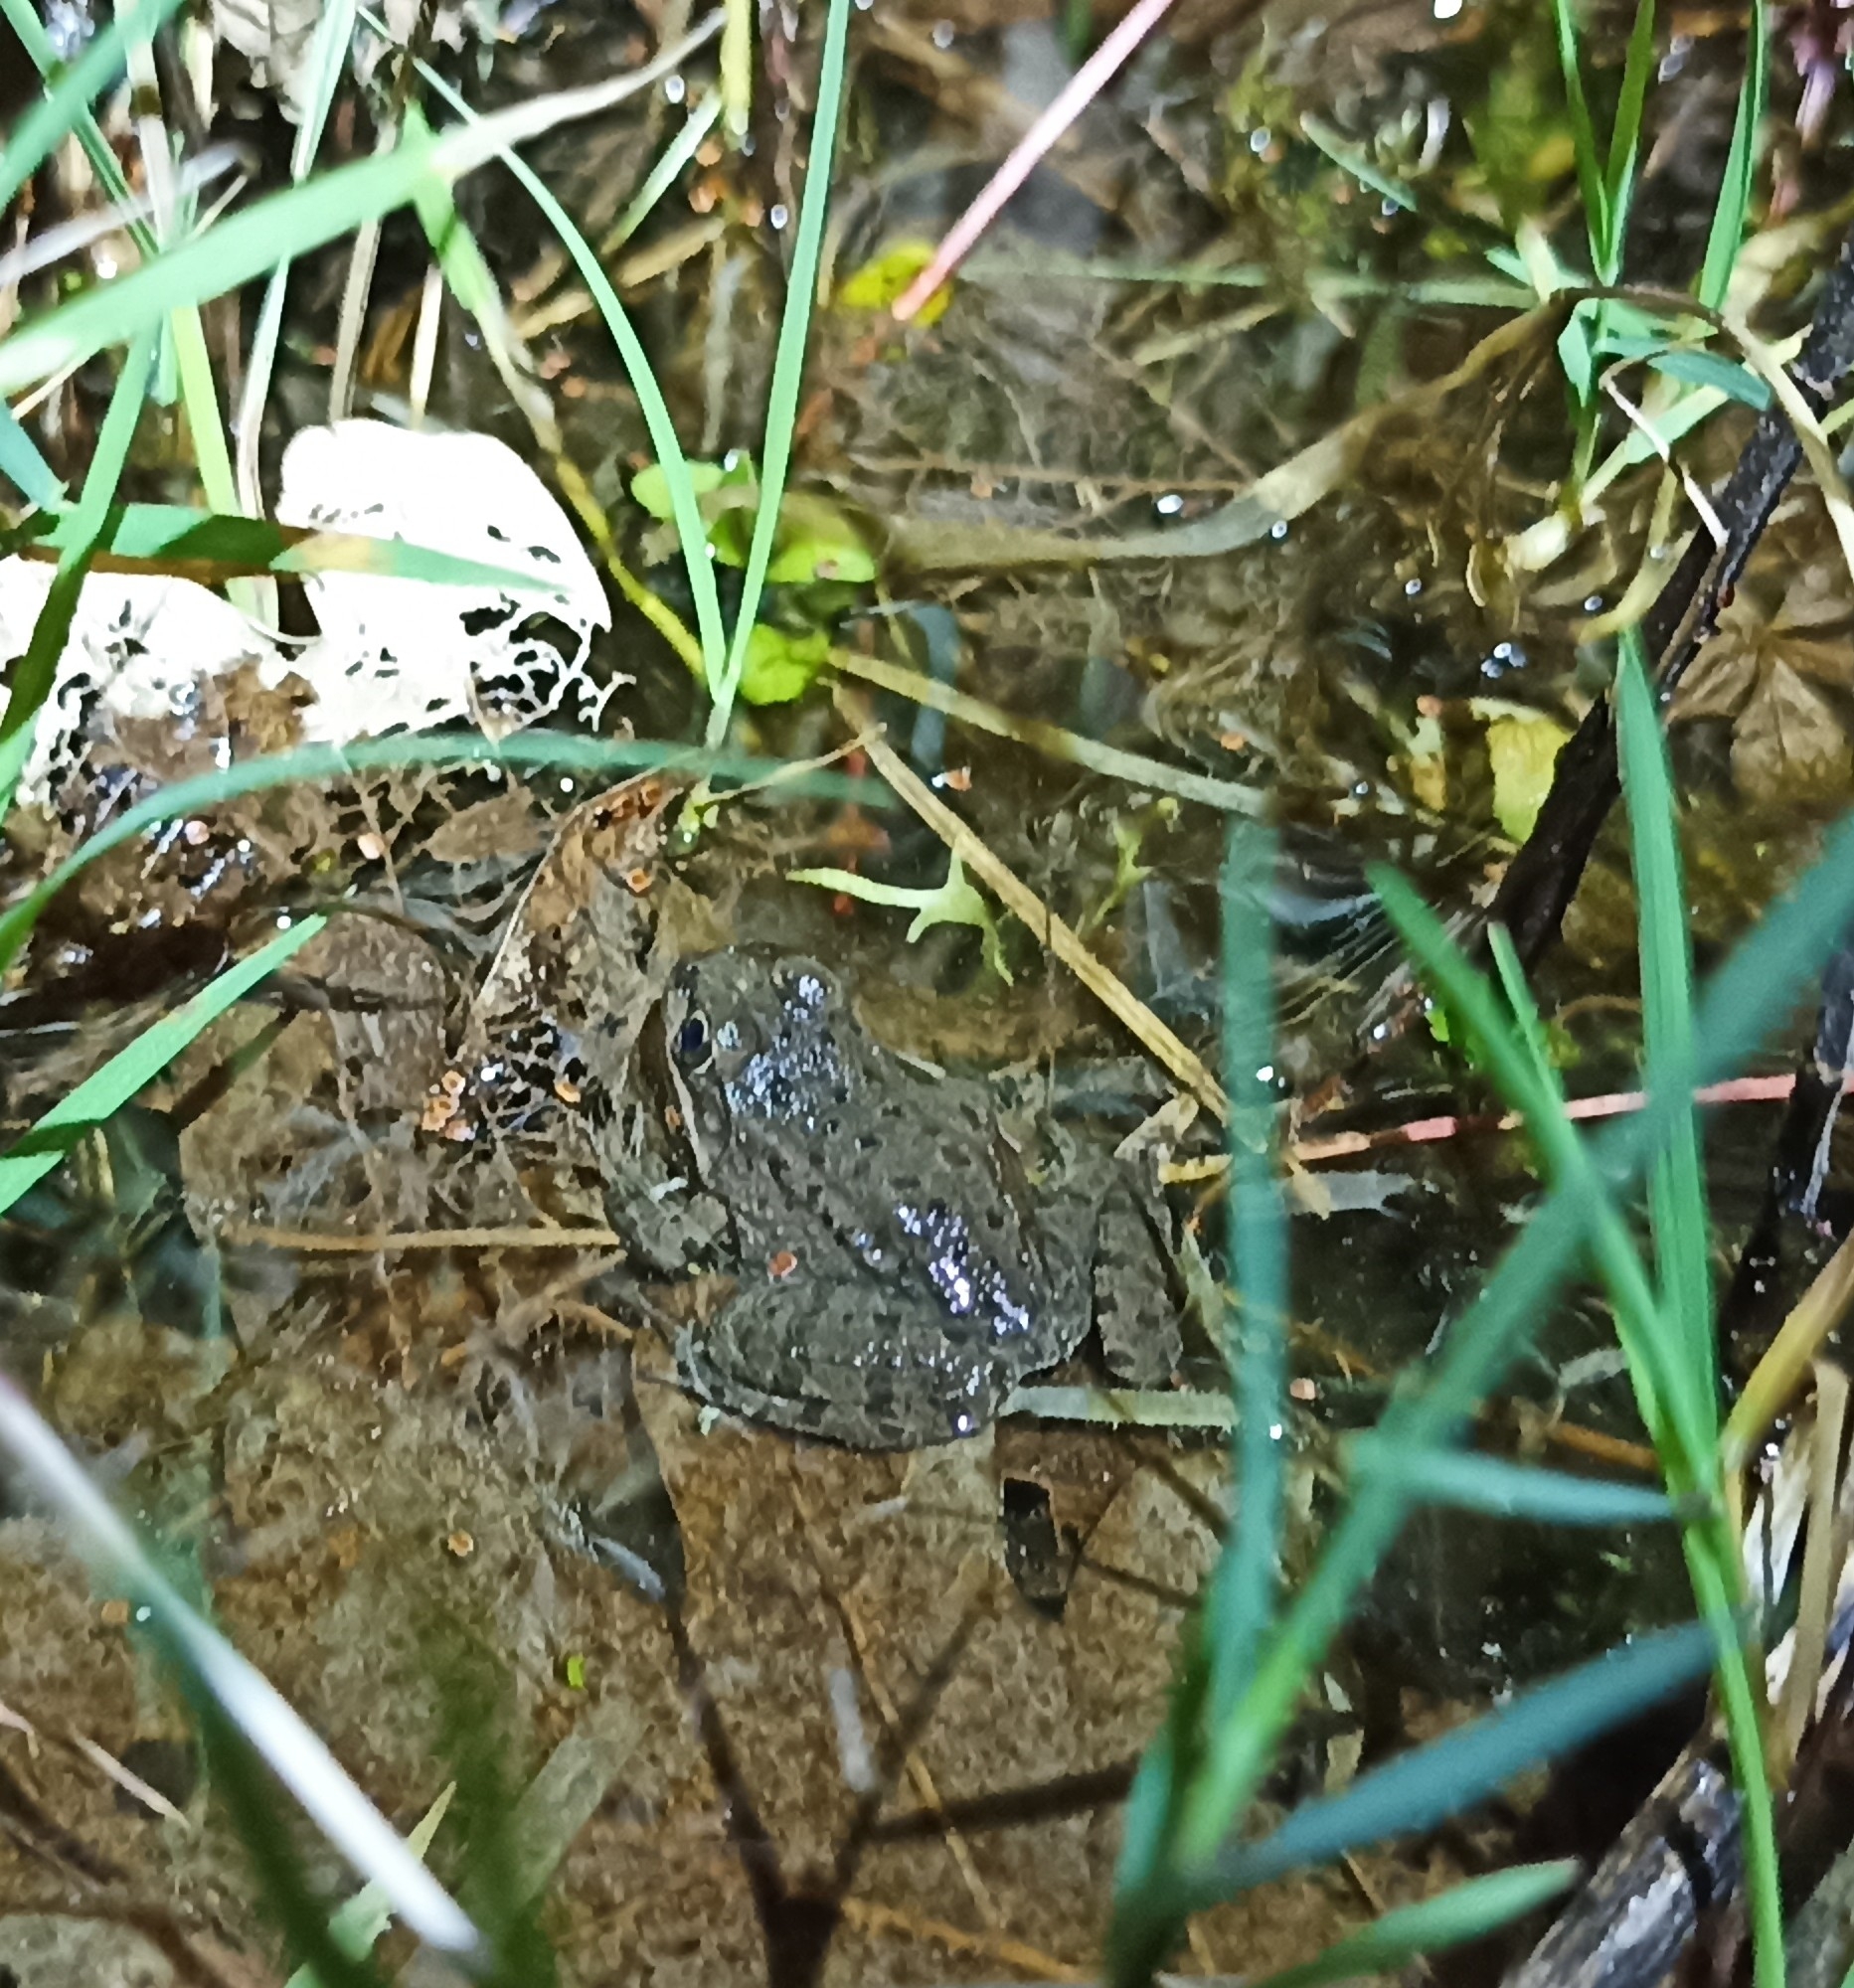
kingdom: Animalia
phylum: Chordata
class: Amphibia
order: Anura
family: Ranidae
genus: Pelophylax
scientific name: Pelophylax
